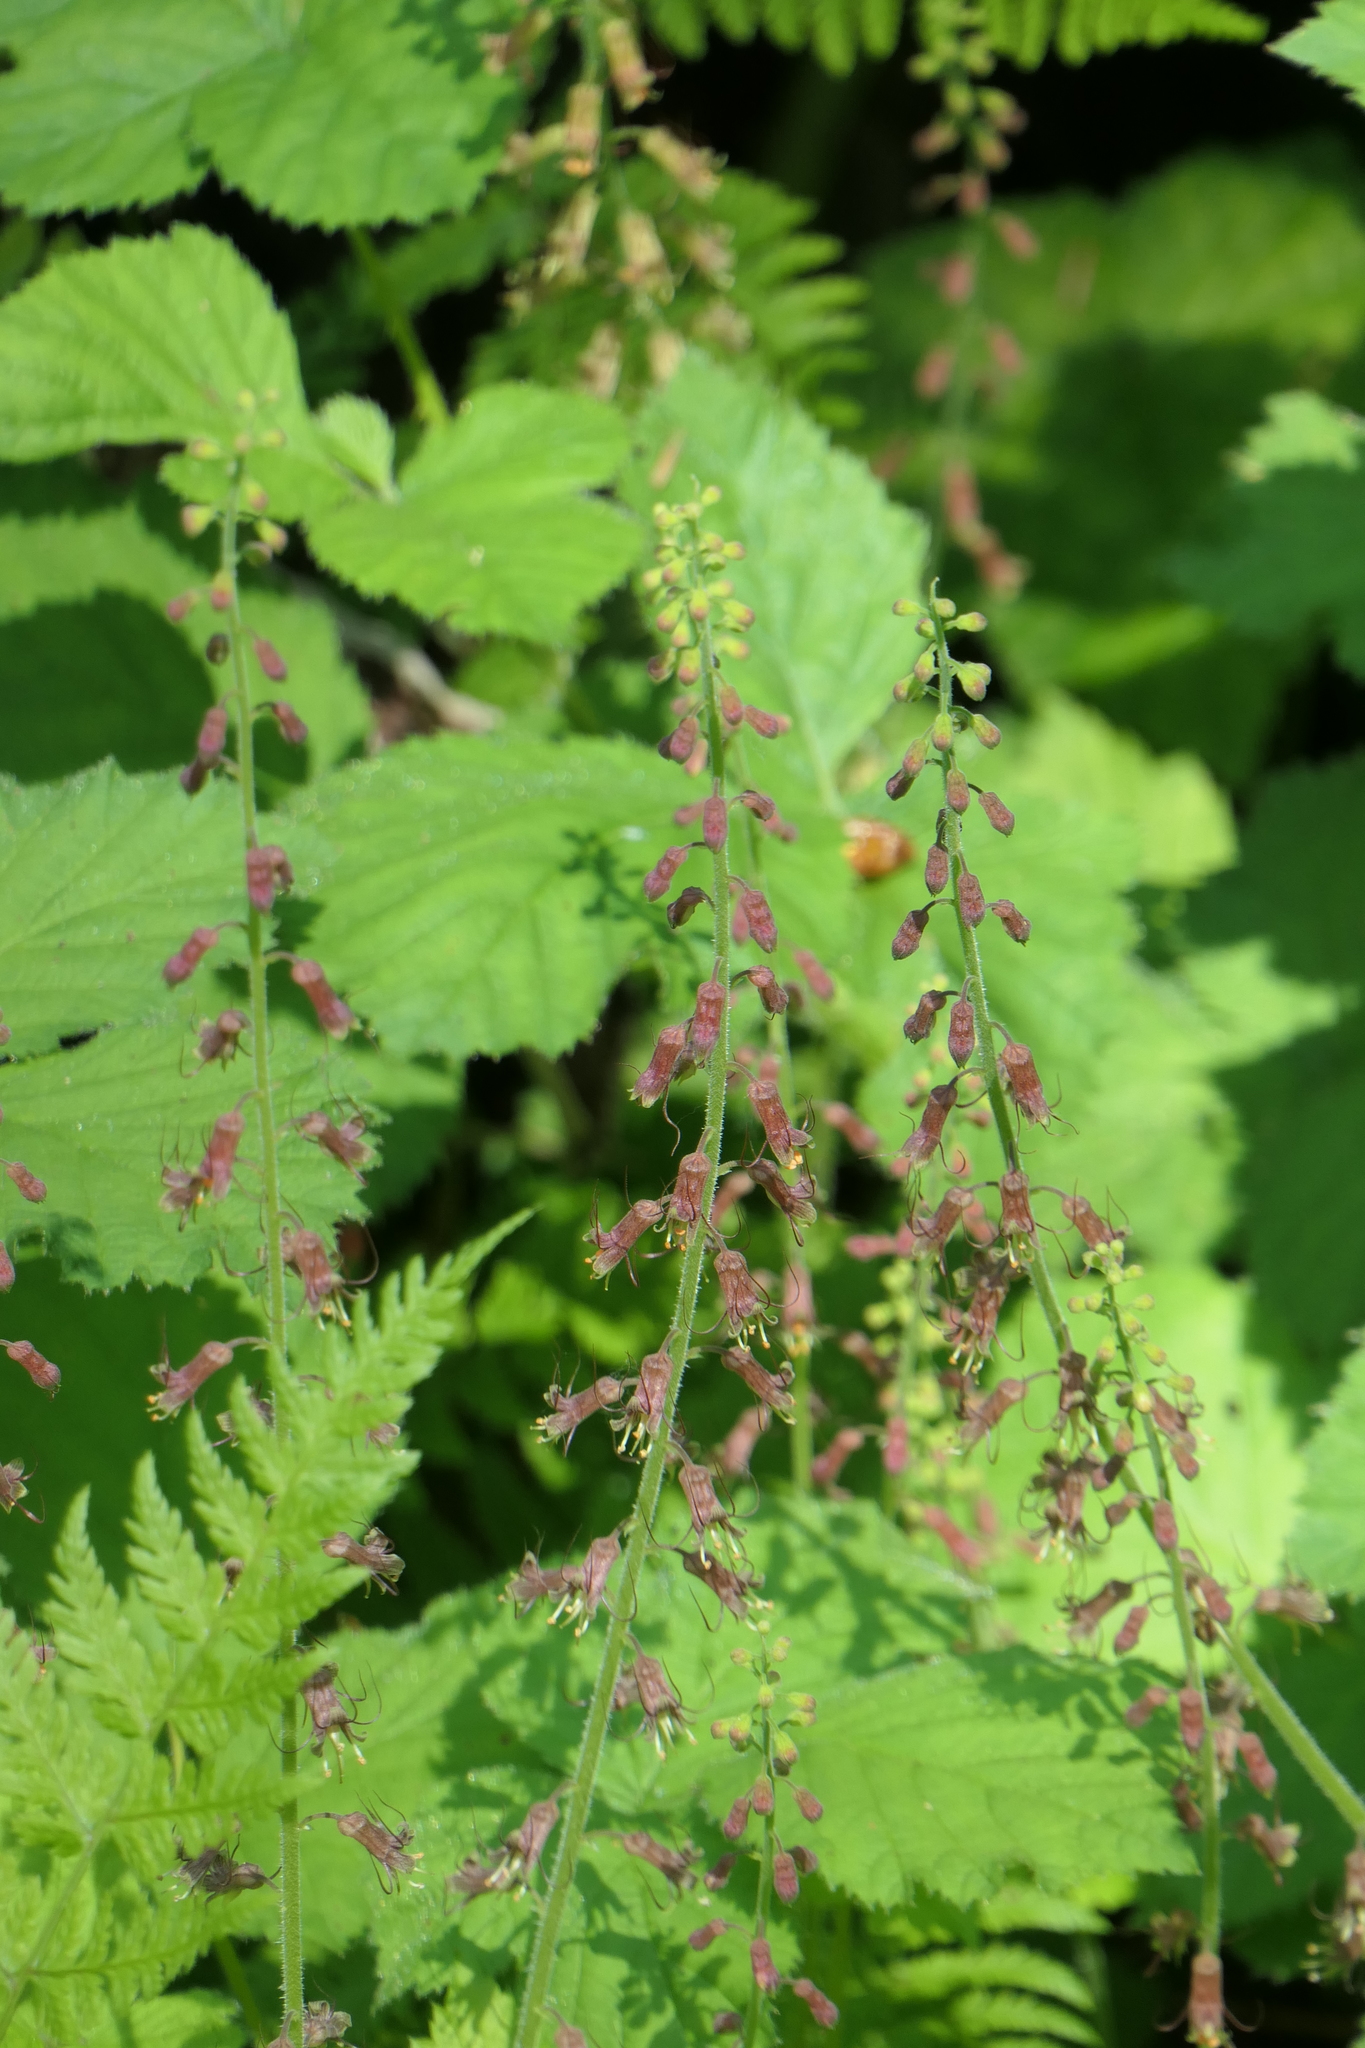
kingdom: Plantae
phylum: Tracheophyta
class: Magnoliopsida
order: Saxifragales
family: Saxifragaceae
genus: Tolmiea
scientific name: Tolmiea menziesii
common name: Pick-a-back-plant
